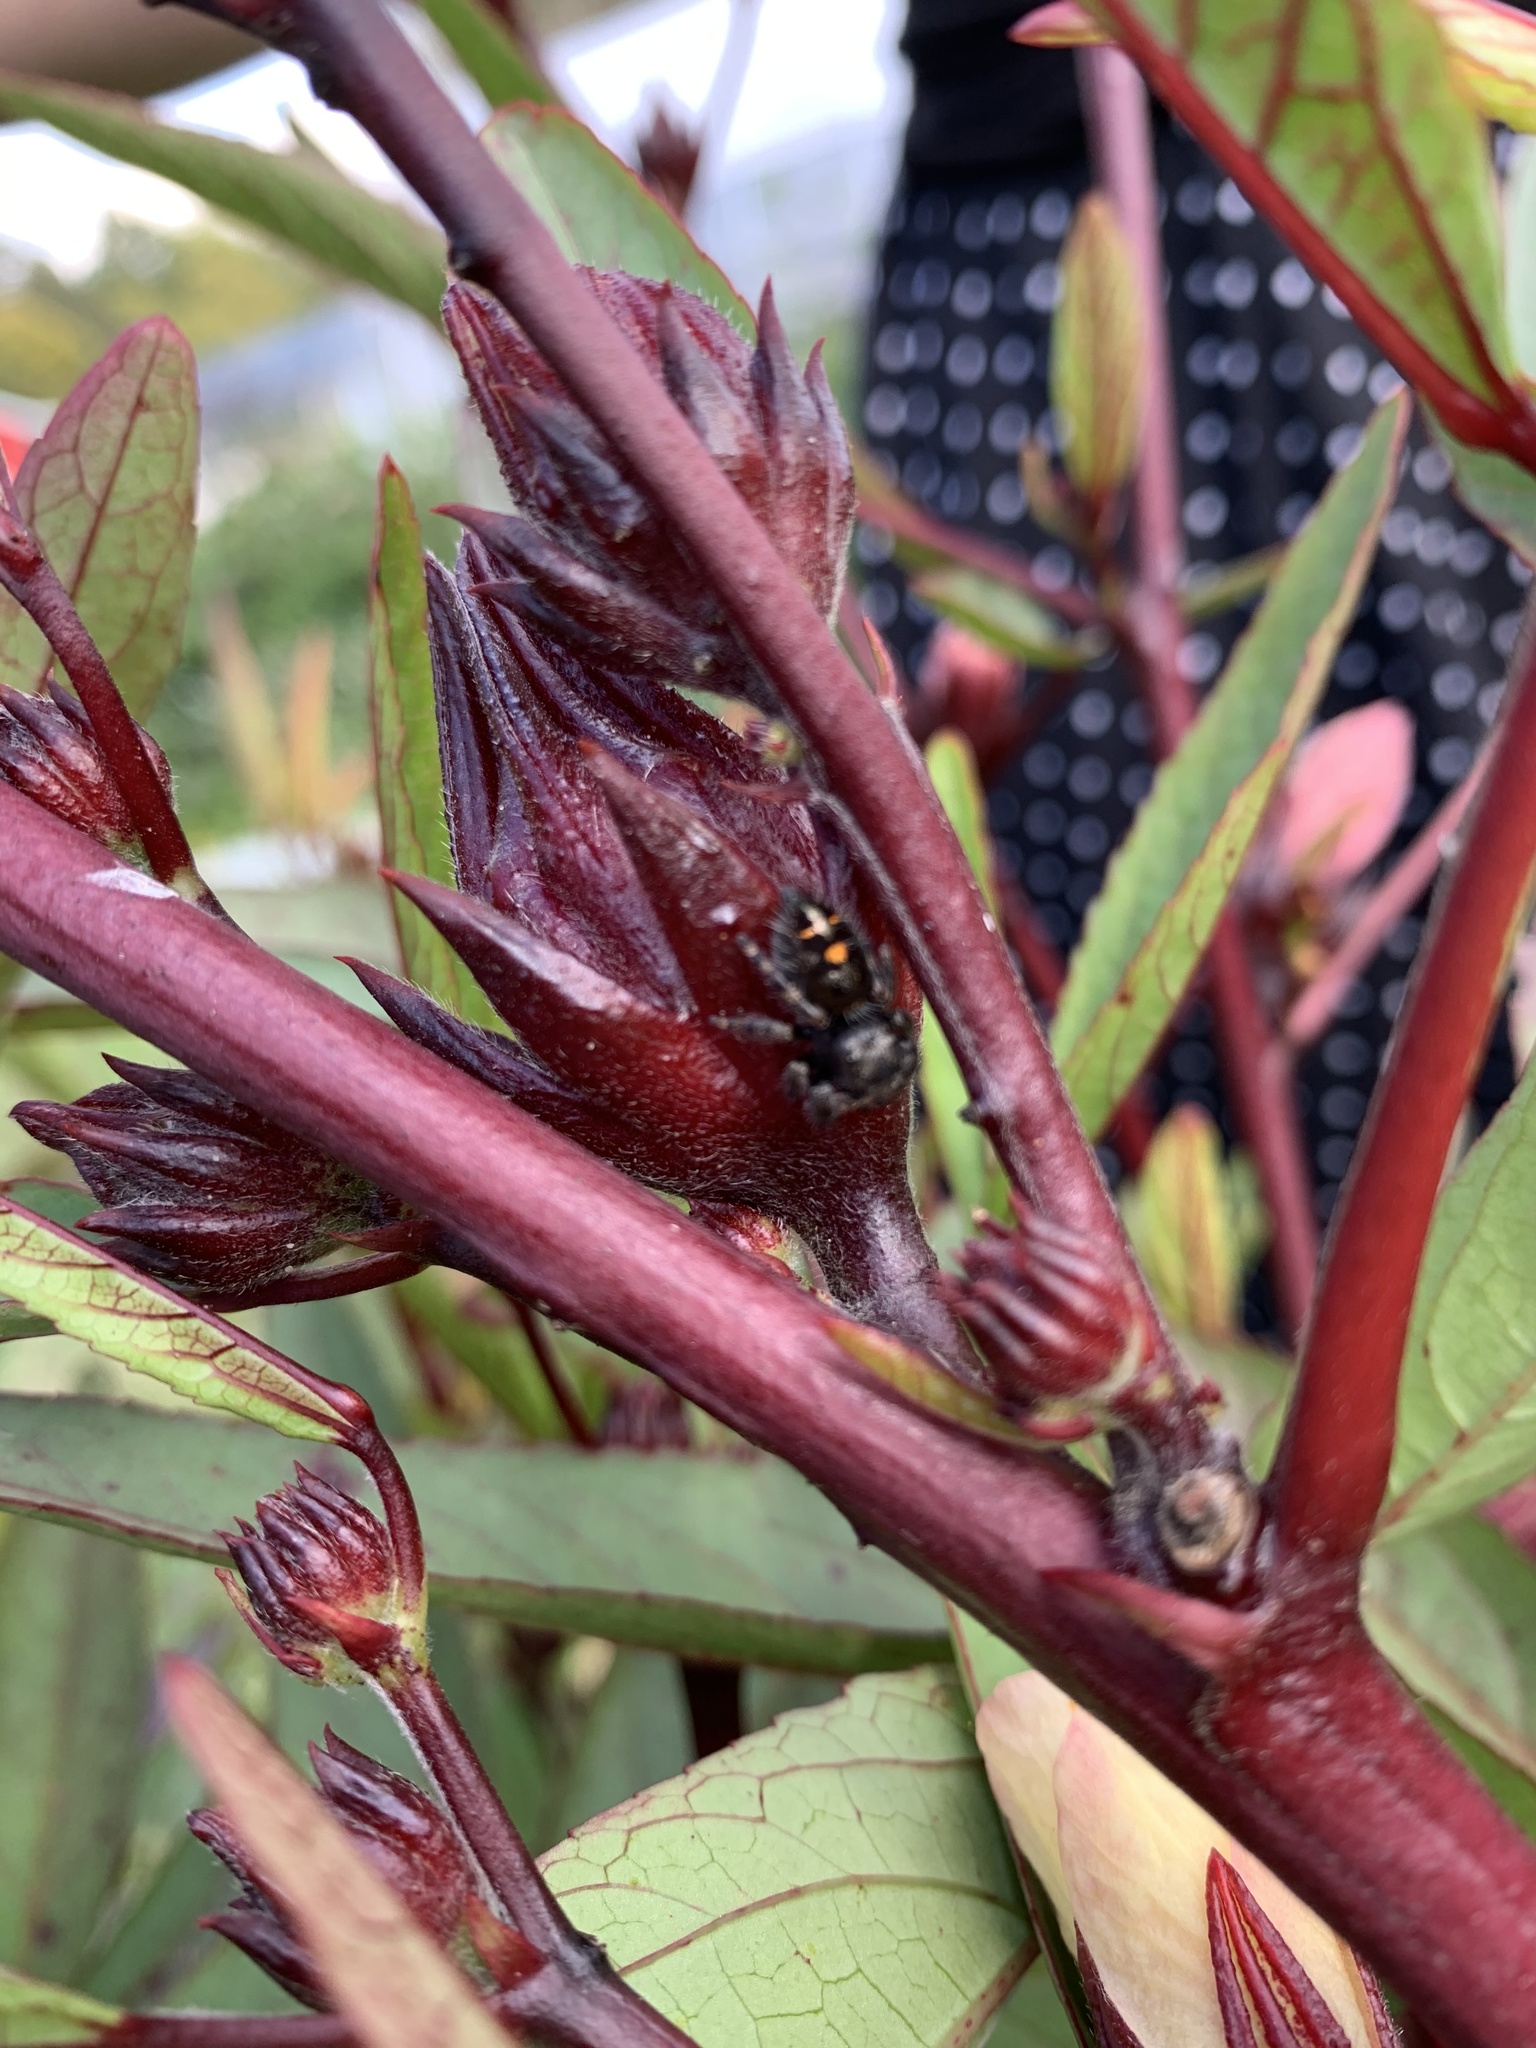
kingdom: Animalia
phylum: Arthropoda
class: Arachnida
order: Araneae
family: Salticidae
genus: Phidippus
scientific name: Phidippus audax
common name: Bold jumper
